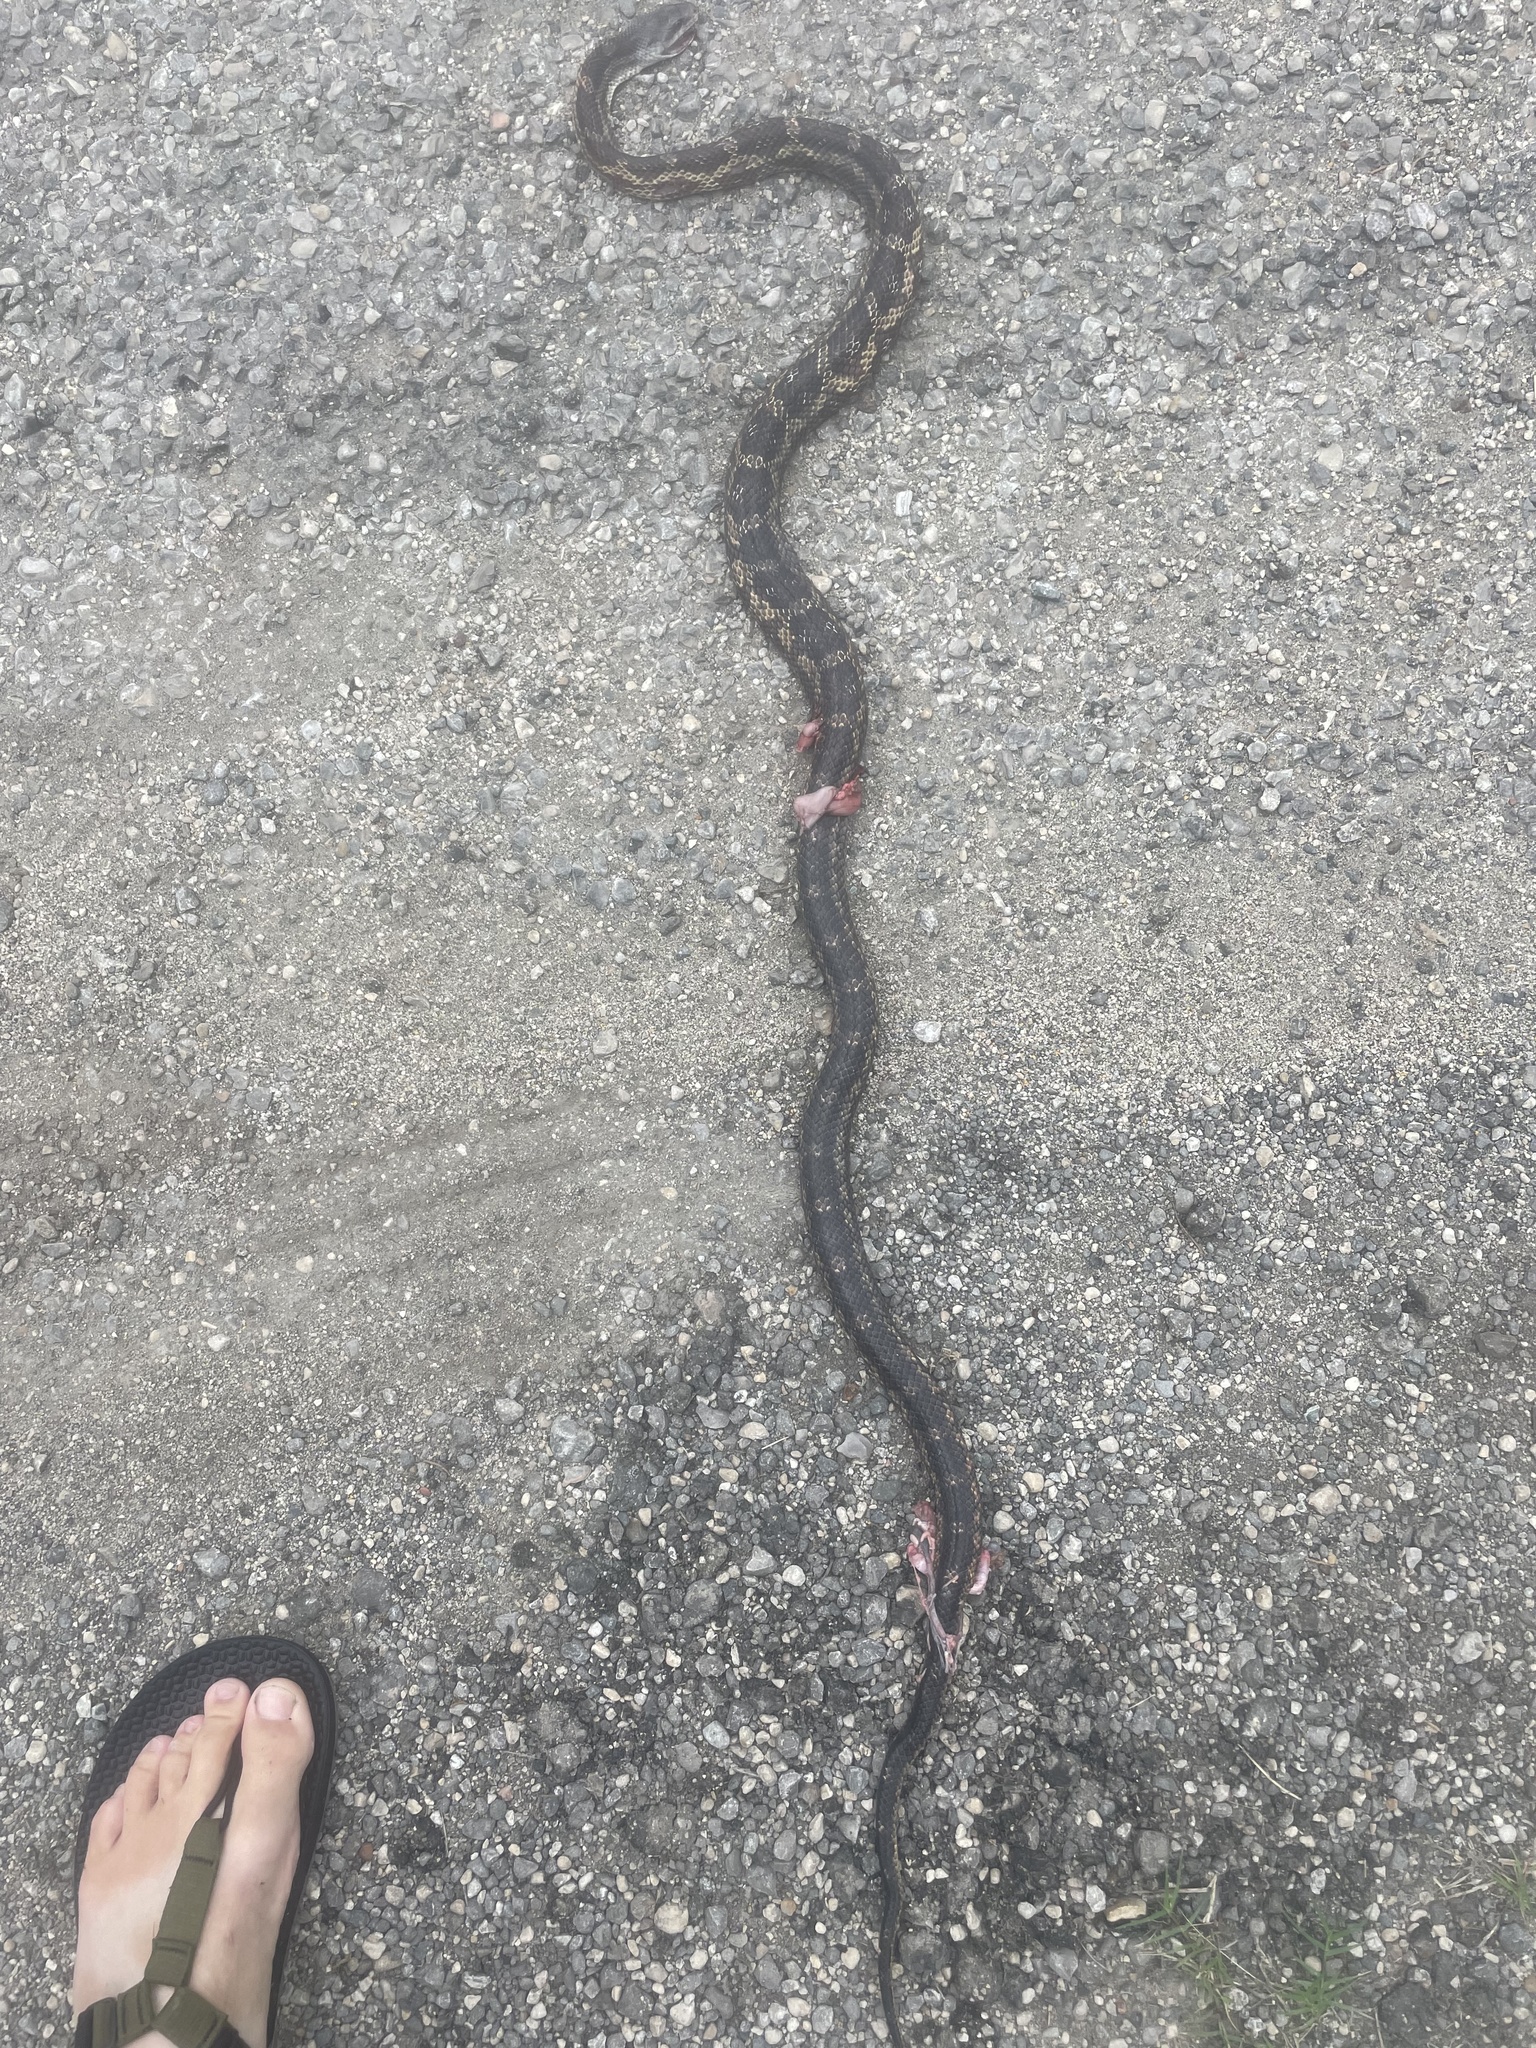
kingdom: Animalia
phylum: Chordata
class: Squamata
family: Colubridae
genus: Pantherophis
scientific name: Pantherophis obsoletus
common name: Black rat snake
